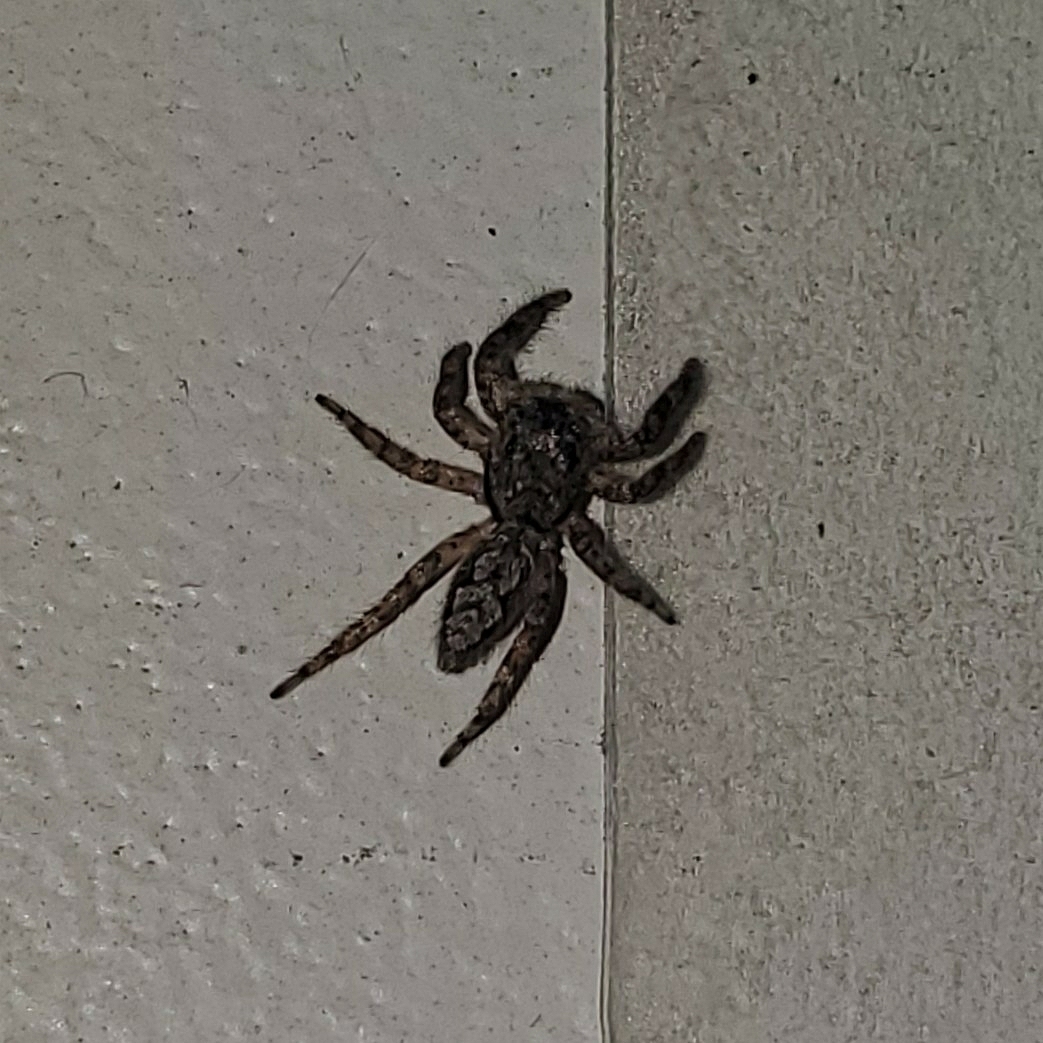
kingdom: Animalia
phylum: Arthropoda
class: Arachnida
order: Araneae
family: Salticidae
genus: Platycryptus
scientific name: Platycryptus undatus
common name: Tan jumping spider
